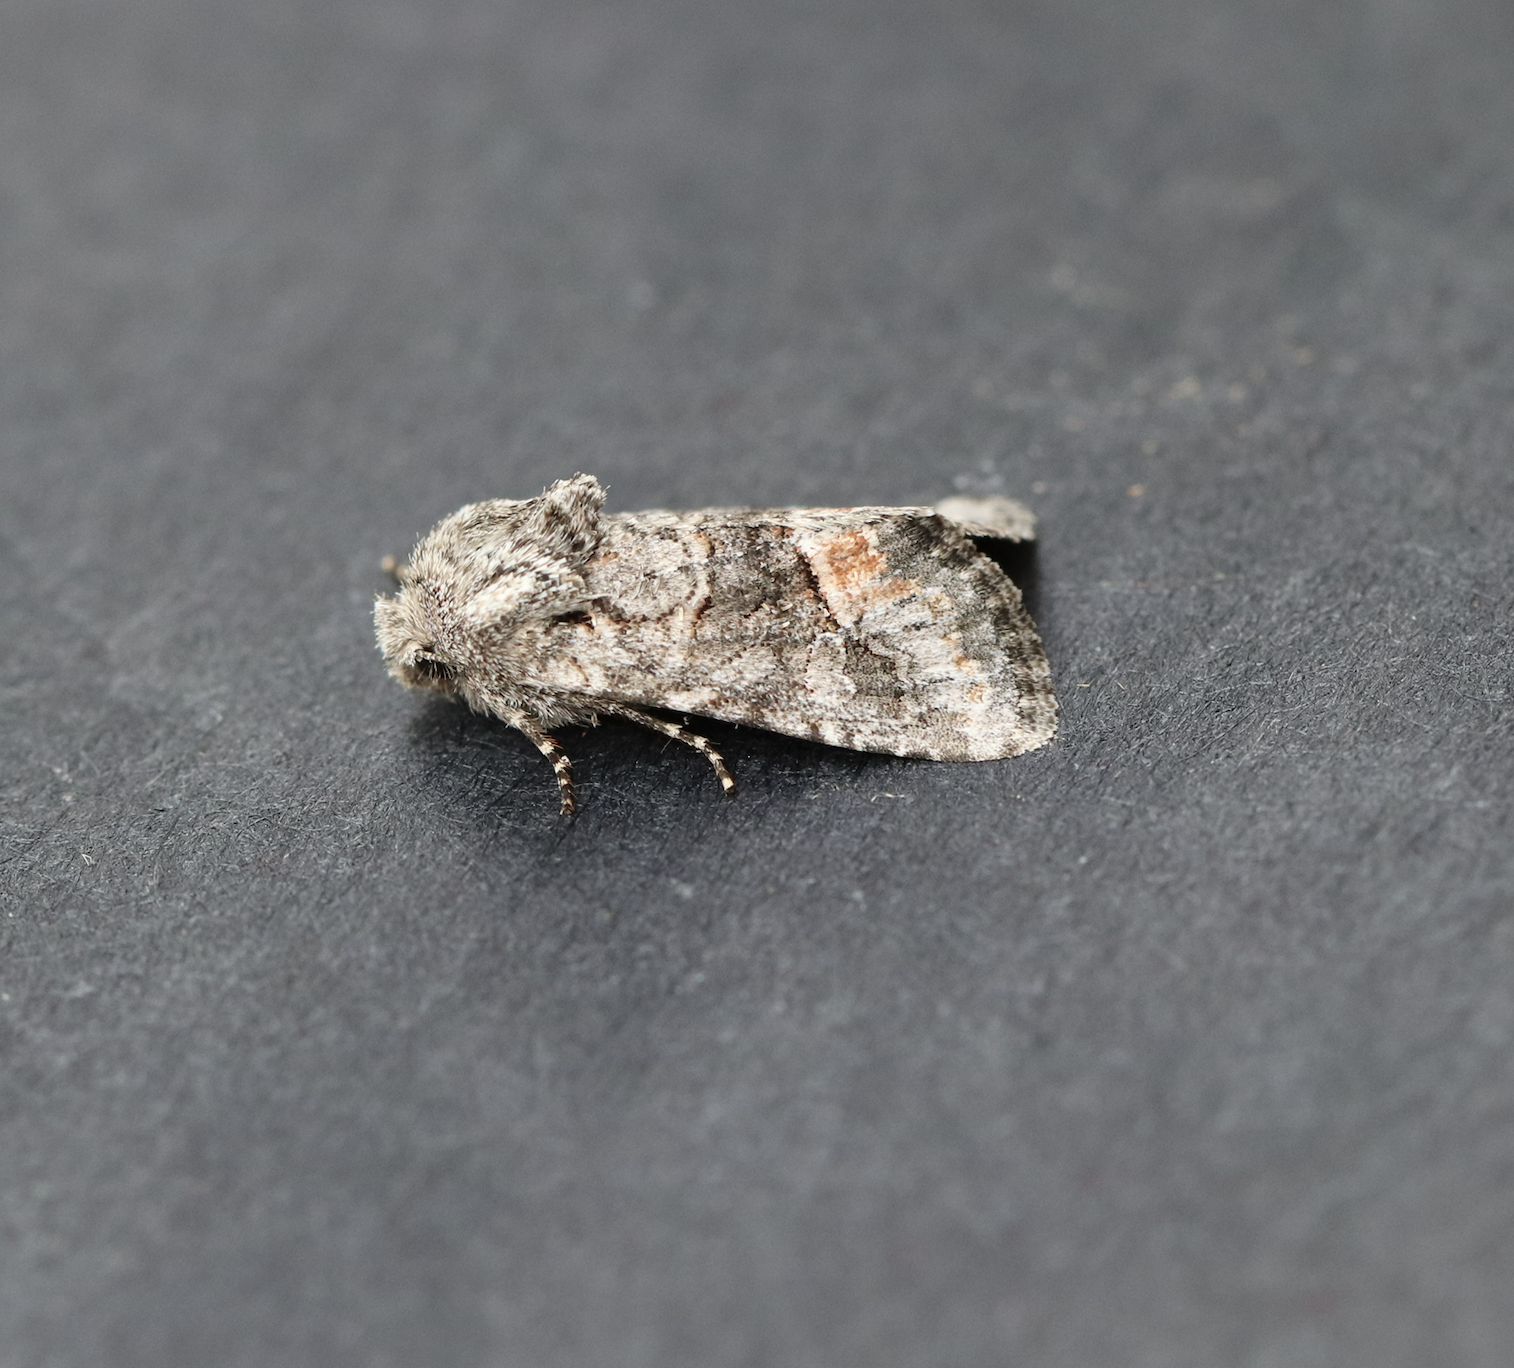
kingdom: Animalia
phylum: Arthropoda
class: Insecta
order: Lepidoptera
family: Noctuidae
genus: Lacinipolia
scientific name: Lacinipolia olivacea
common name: Olive arches moth
